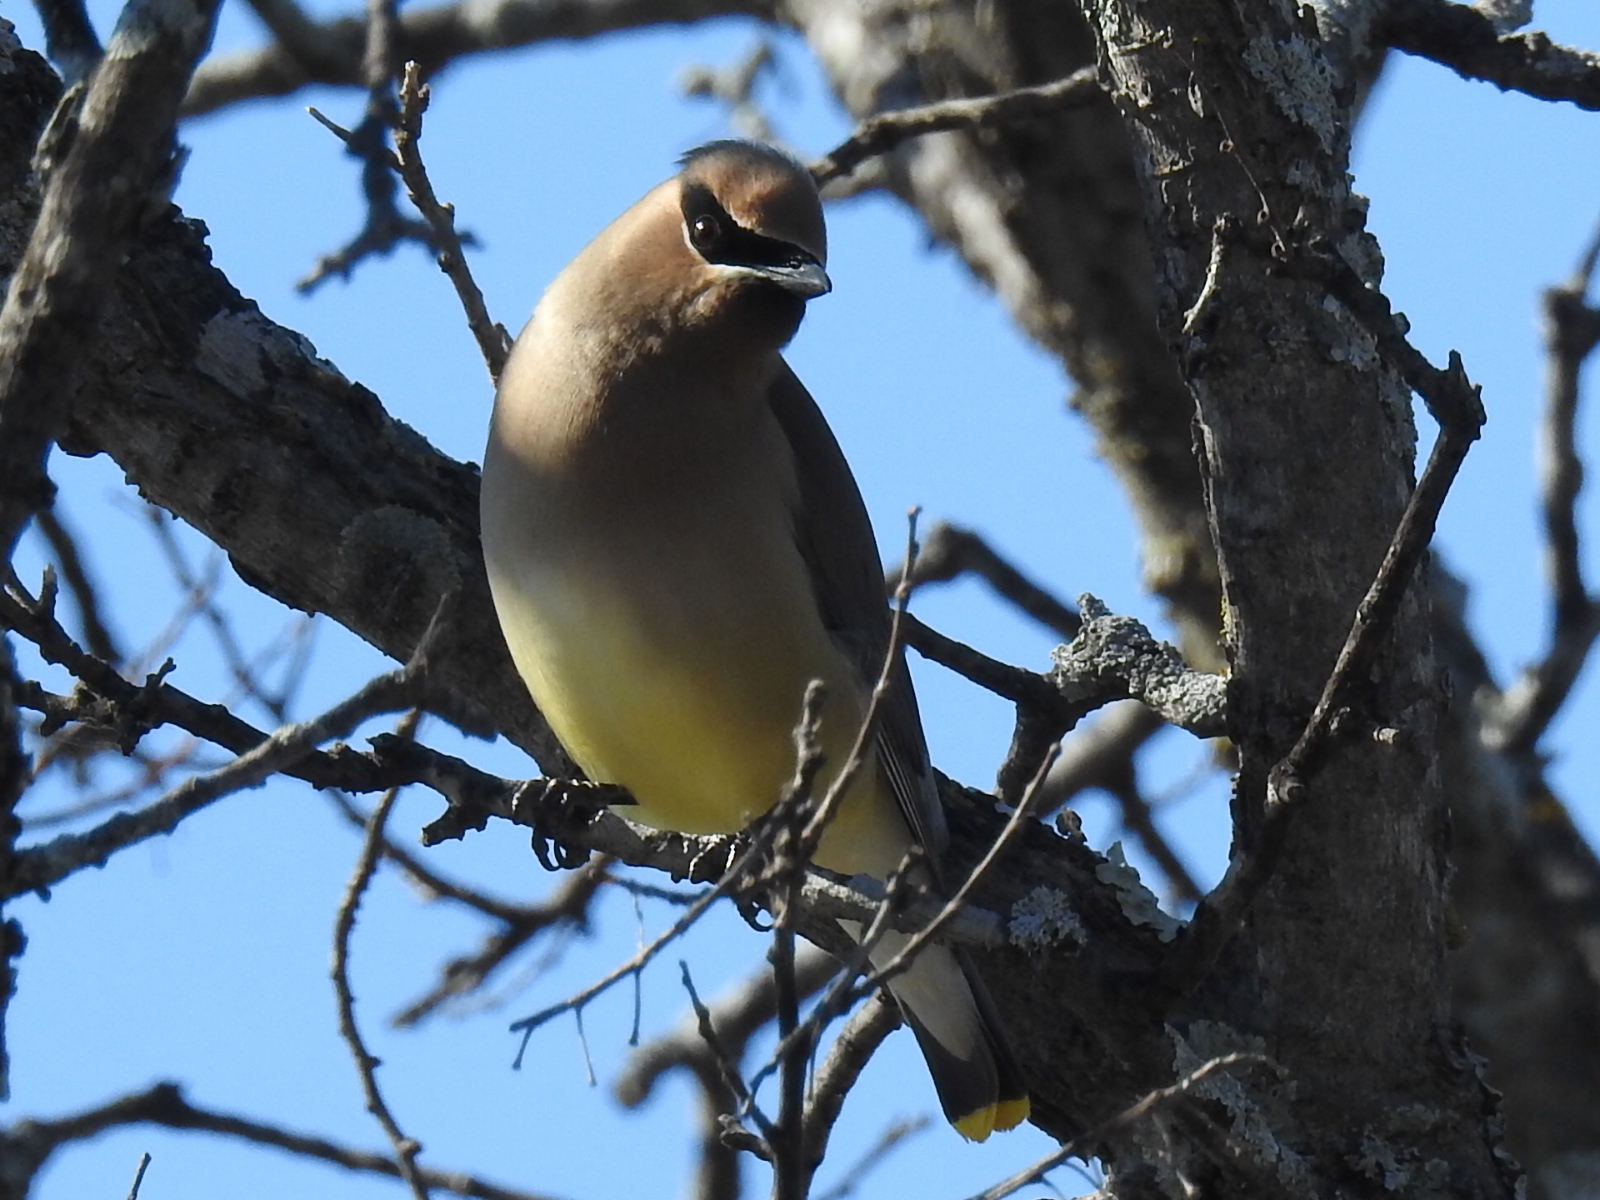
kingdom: Animalia
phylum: Chordata
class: Aves
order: Passeriformes
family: Bombycillidae
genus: Bombycilla
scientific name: Bombycilla cedrorum
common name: Cedar waxwing
